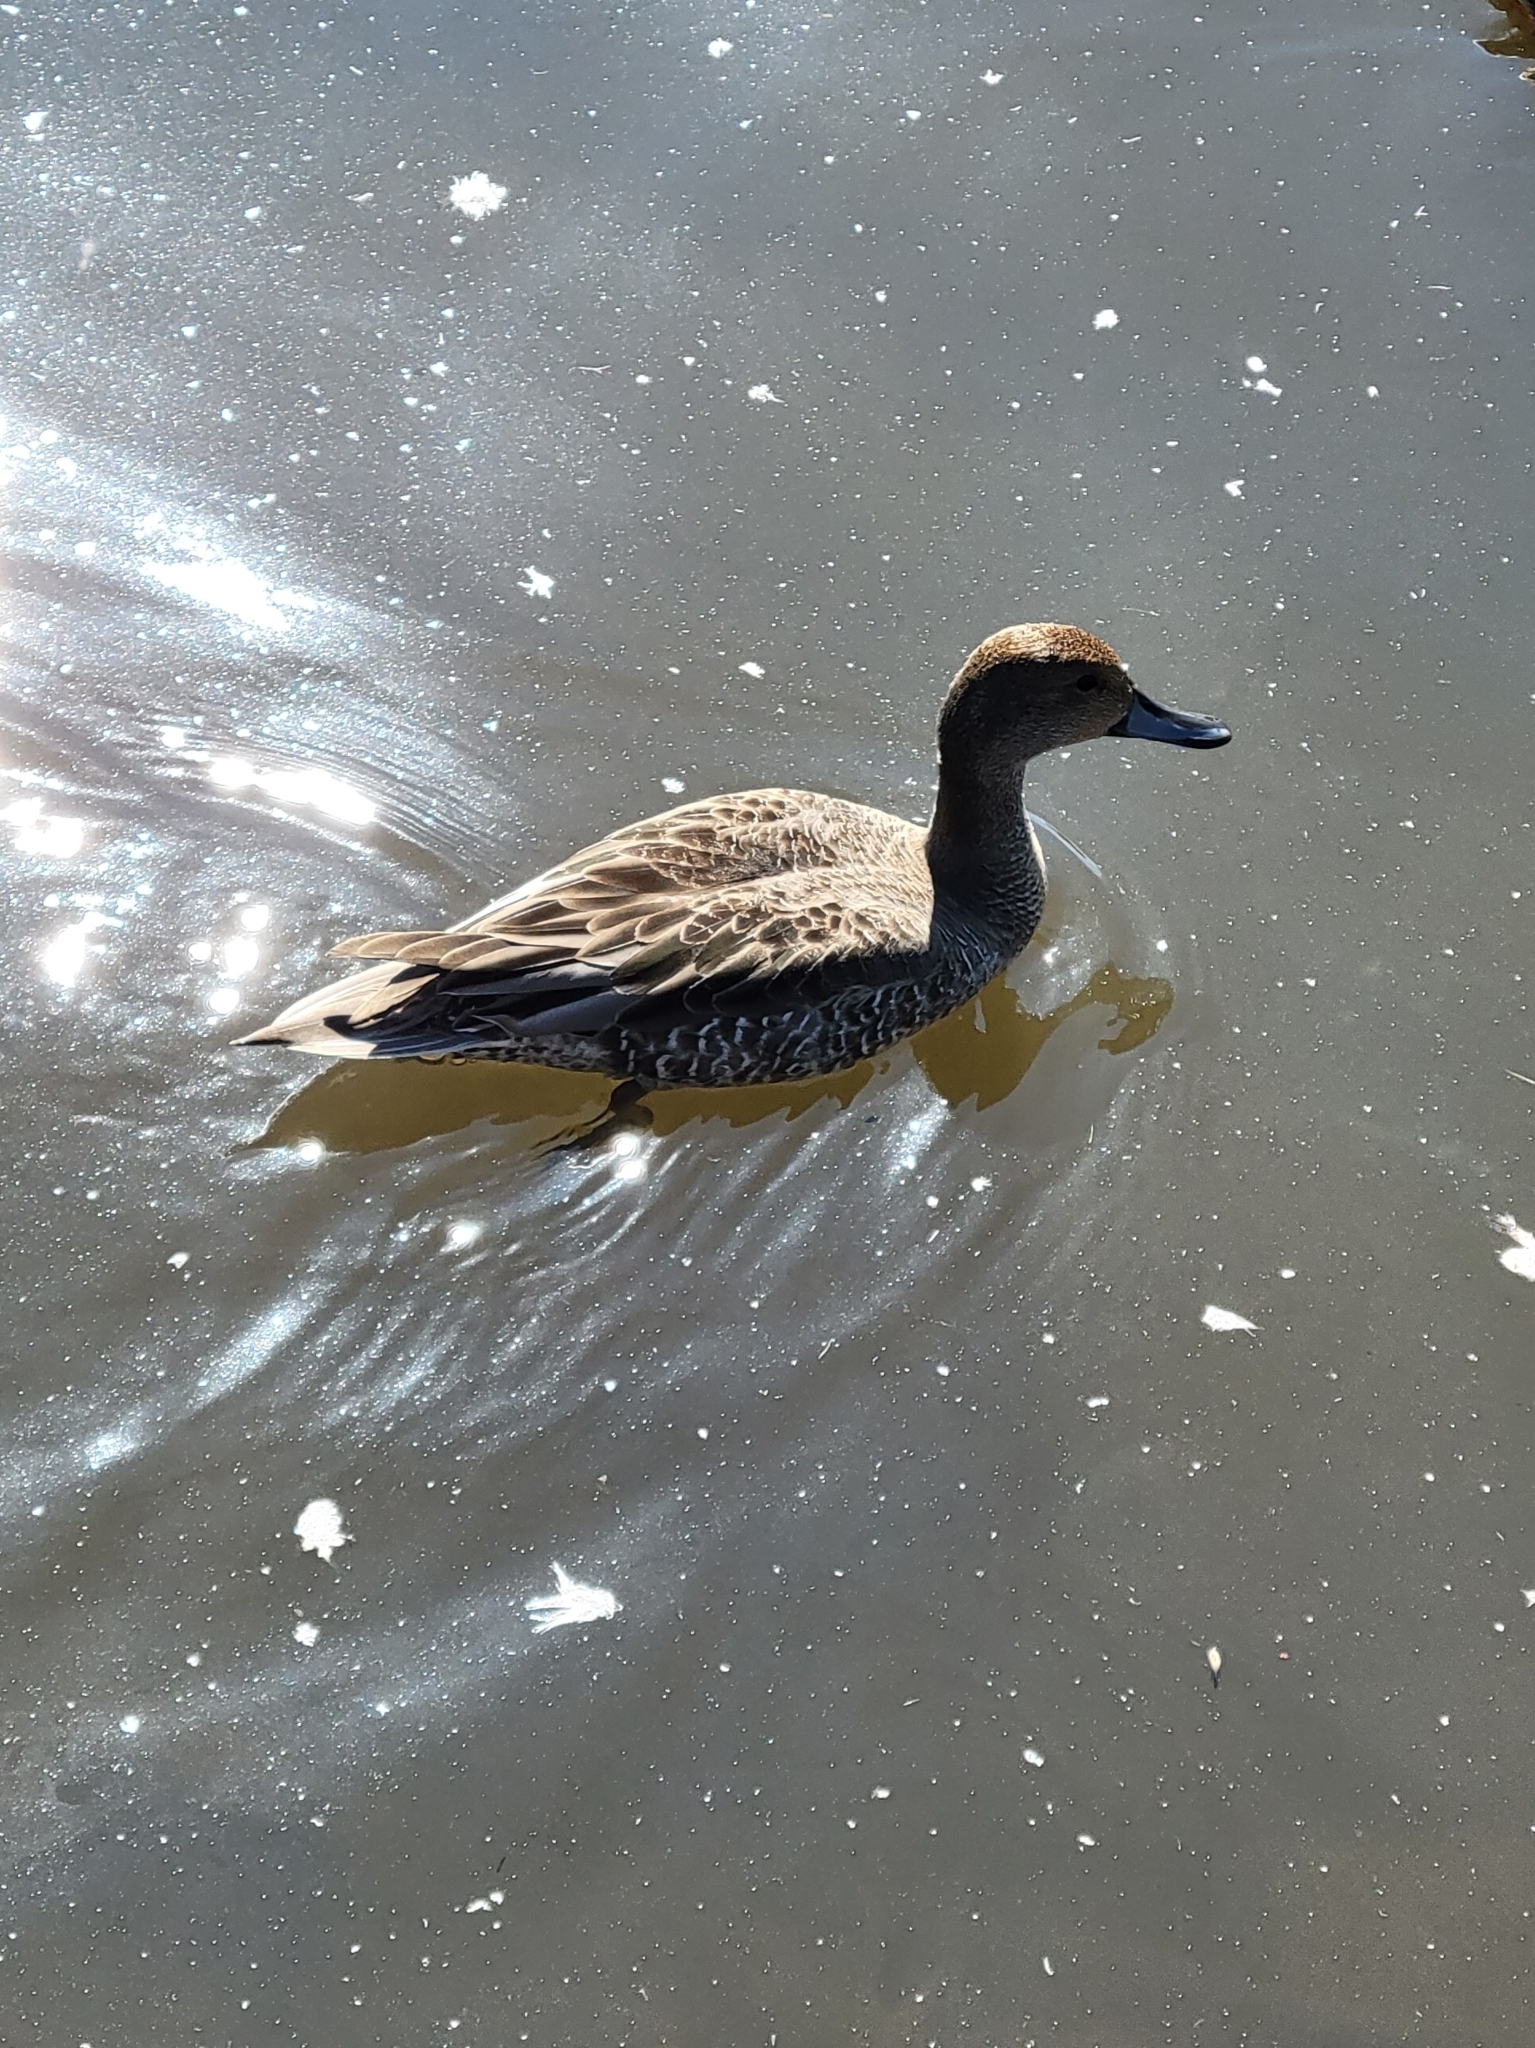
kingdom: Animalia
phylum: Chordata
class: Aves
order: Anseriformes
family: Anatidae
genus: Anas
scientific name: Anas acuta
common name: Northern pintail
